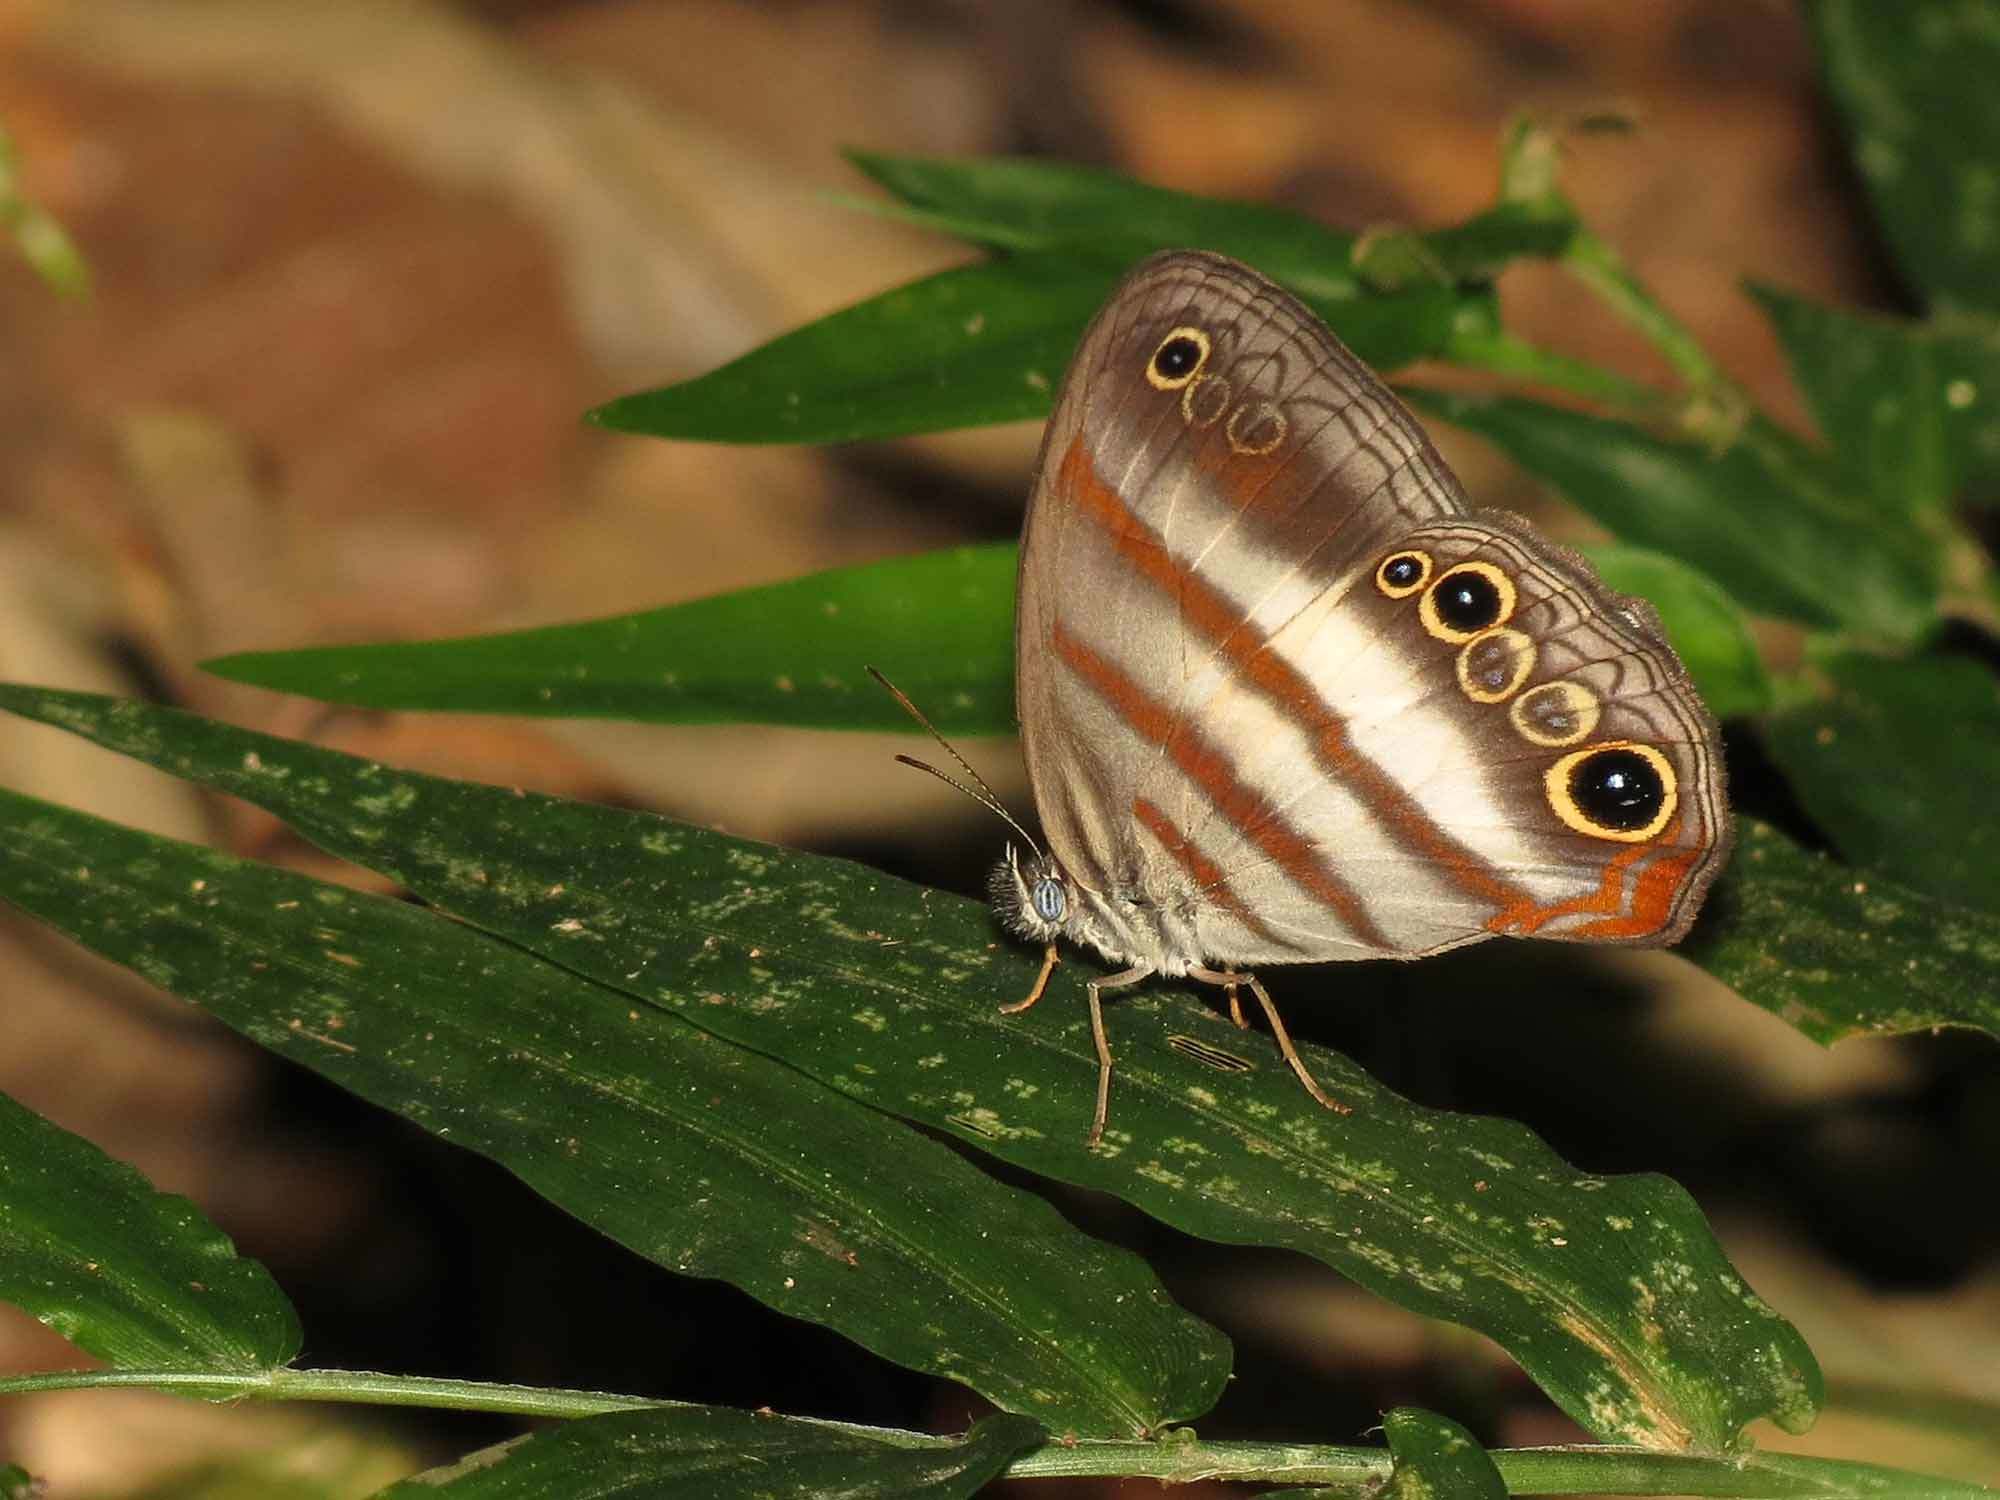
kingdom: Animalia
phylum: Arthropoda
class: Insecta
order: Lepidoptera
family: Nymphalidae
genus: Pareuptychia
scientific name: Pareuptychia hesione
